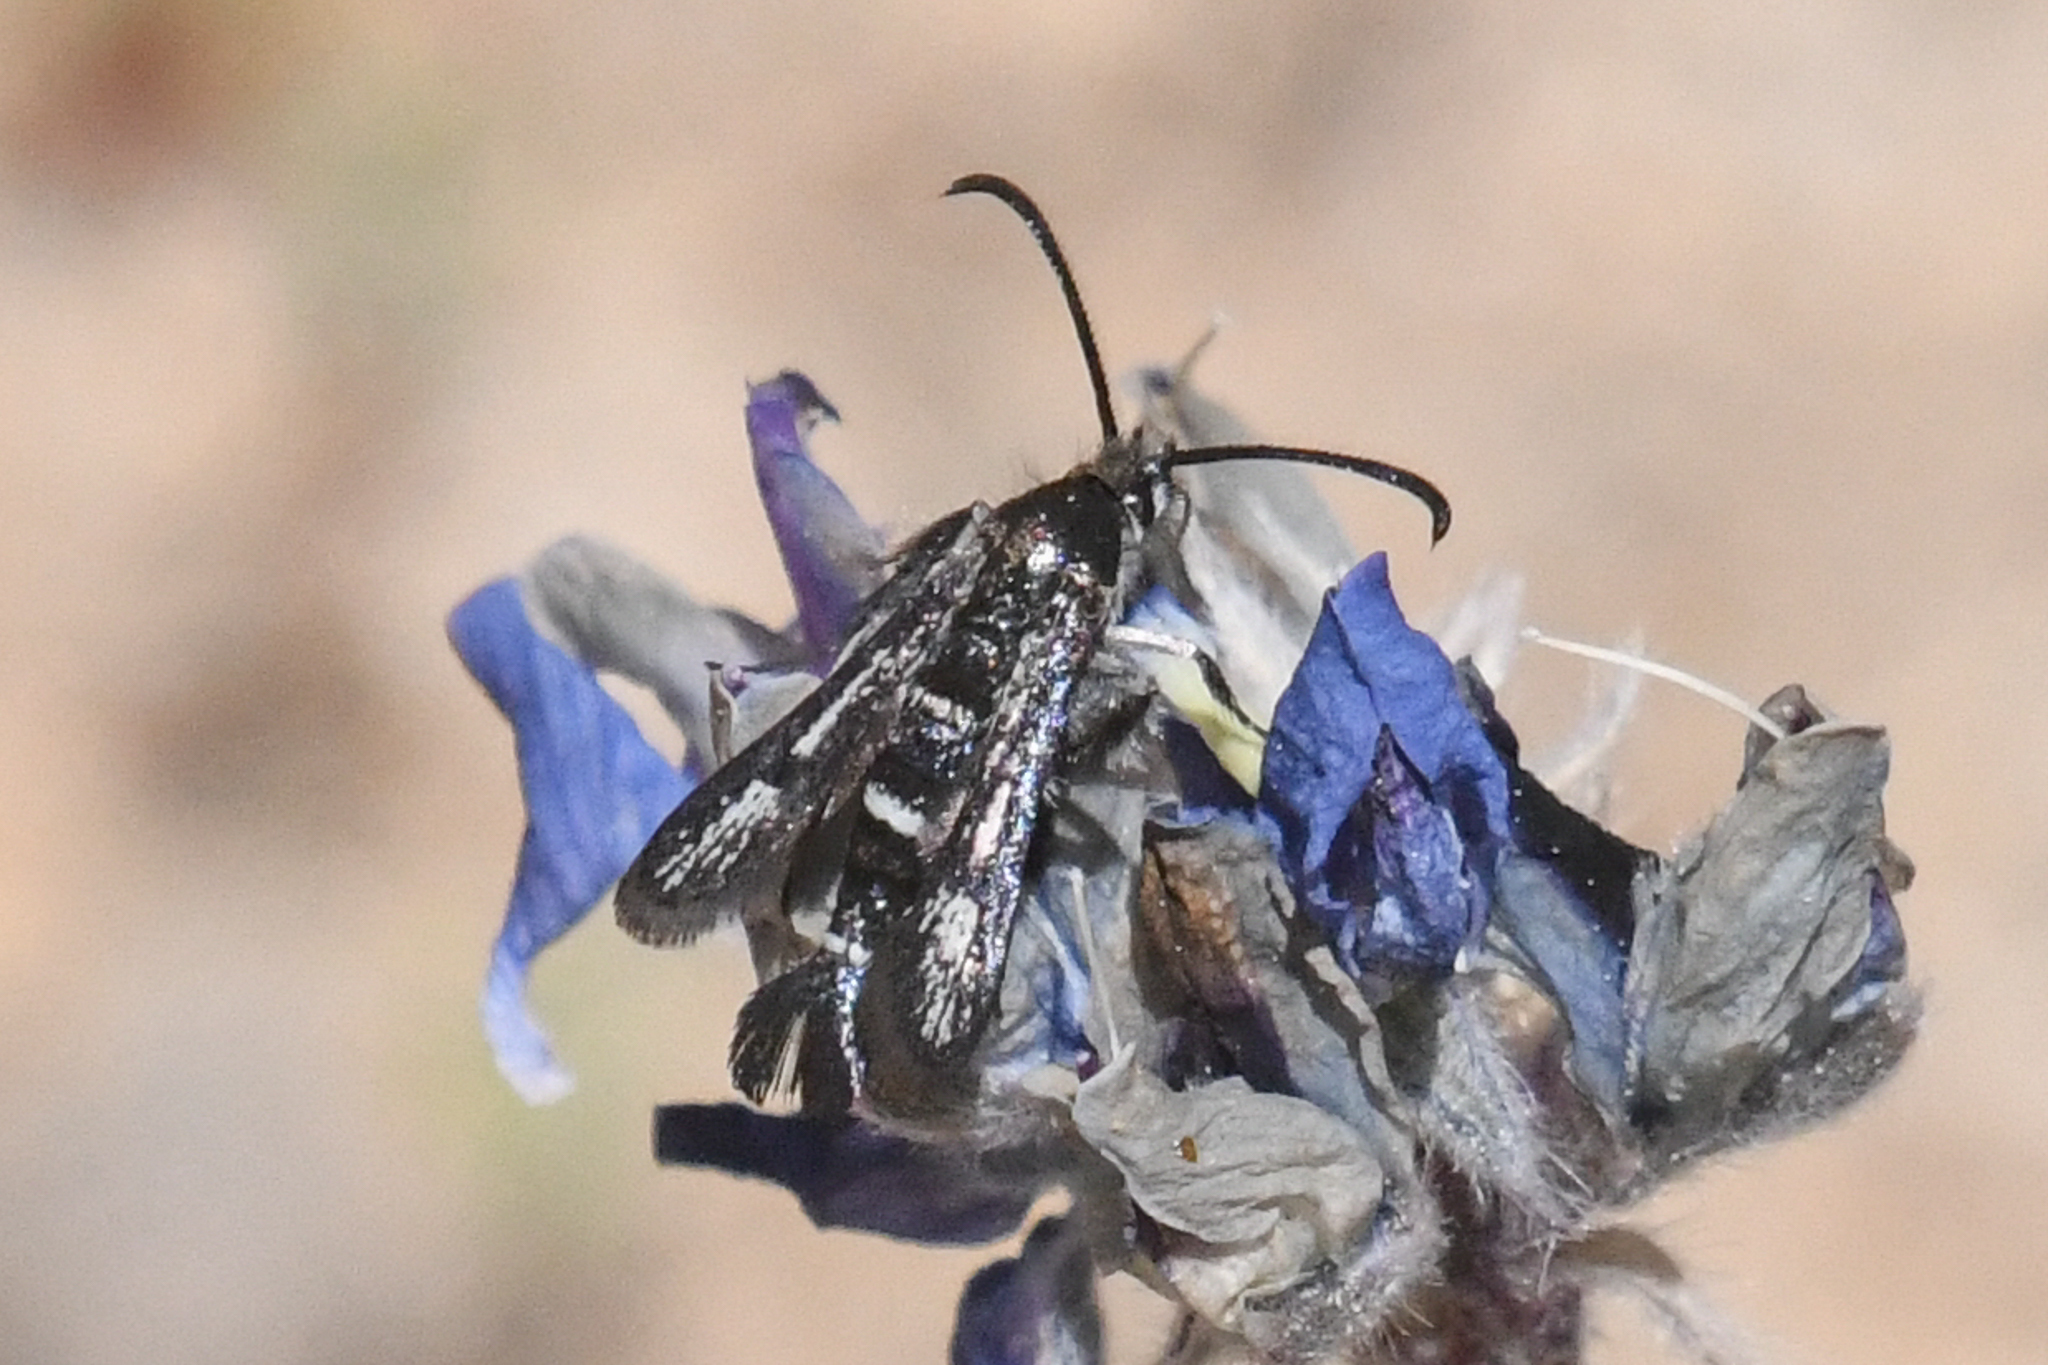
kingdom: Animalia
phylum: Arthropoda
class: Insecta
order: Lepidoptera
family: Sesiidae
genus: Carmenta
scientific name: Carmenta verecunda
